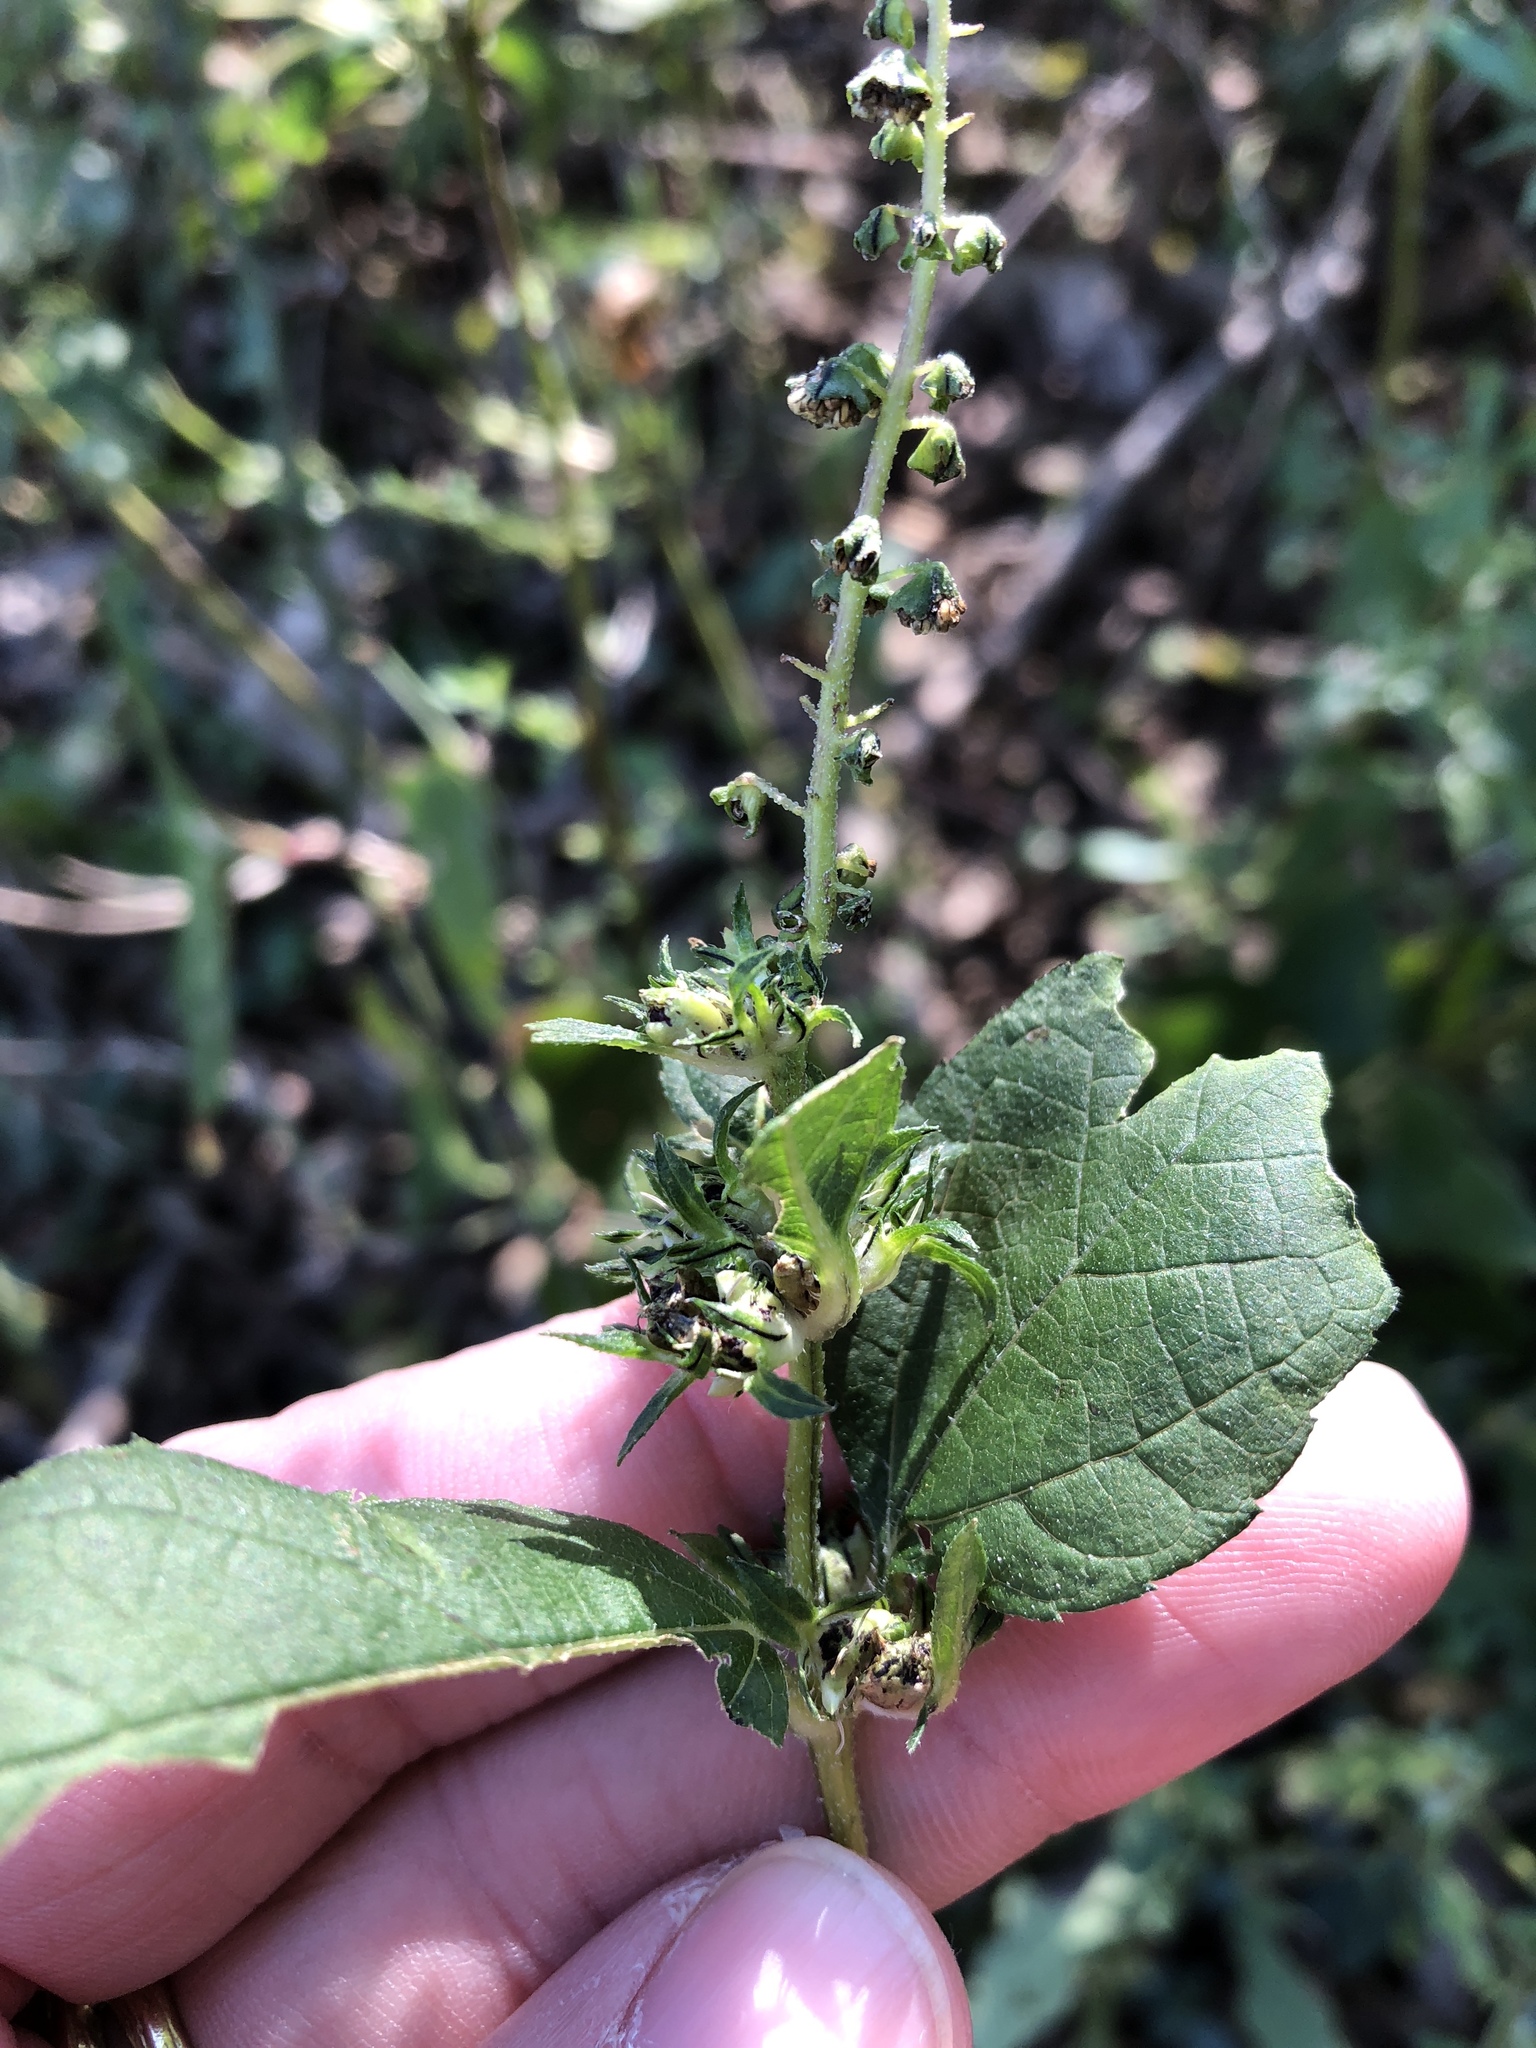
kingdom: Plantae
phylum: Tracheophyta
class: Magnoliopsida
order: Asterales
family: Asteraceae
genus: Ambrosia
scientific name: Ambrosia trifida
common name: Giant ragweed
